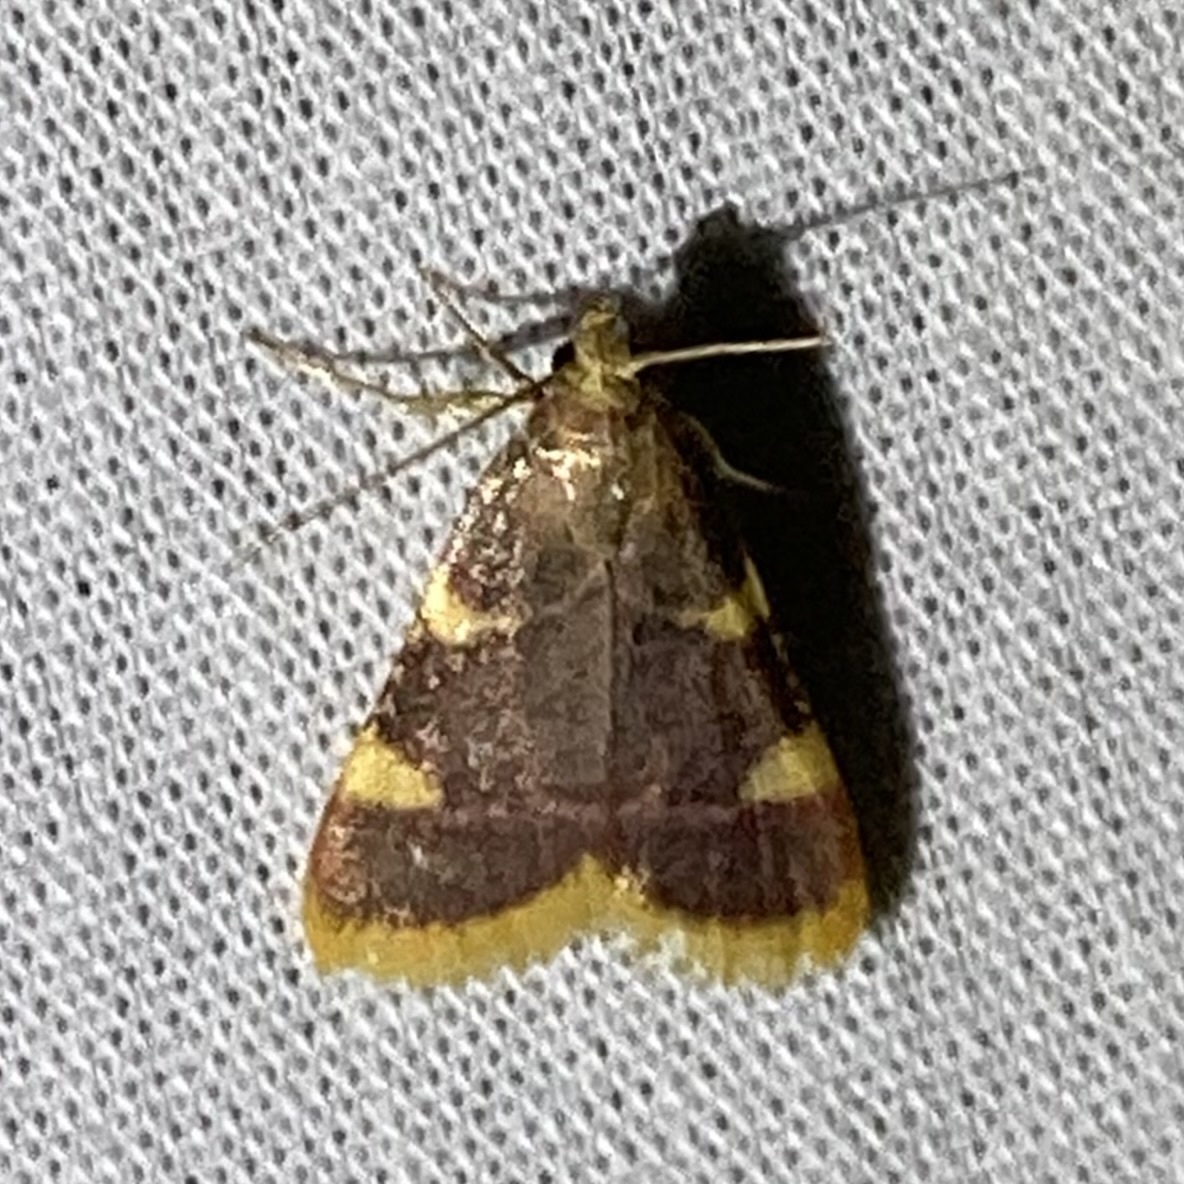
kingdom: Animalia
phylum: Arthropoda
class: Insecta
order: Lepidoptera
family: Pyralidae
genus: Hypsopygia
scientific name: Hypsopygia costalis
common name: Gold triangle
